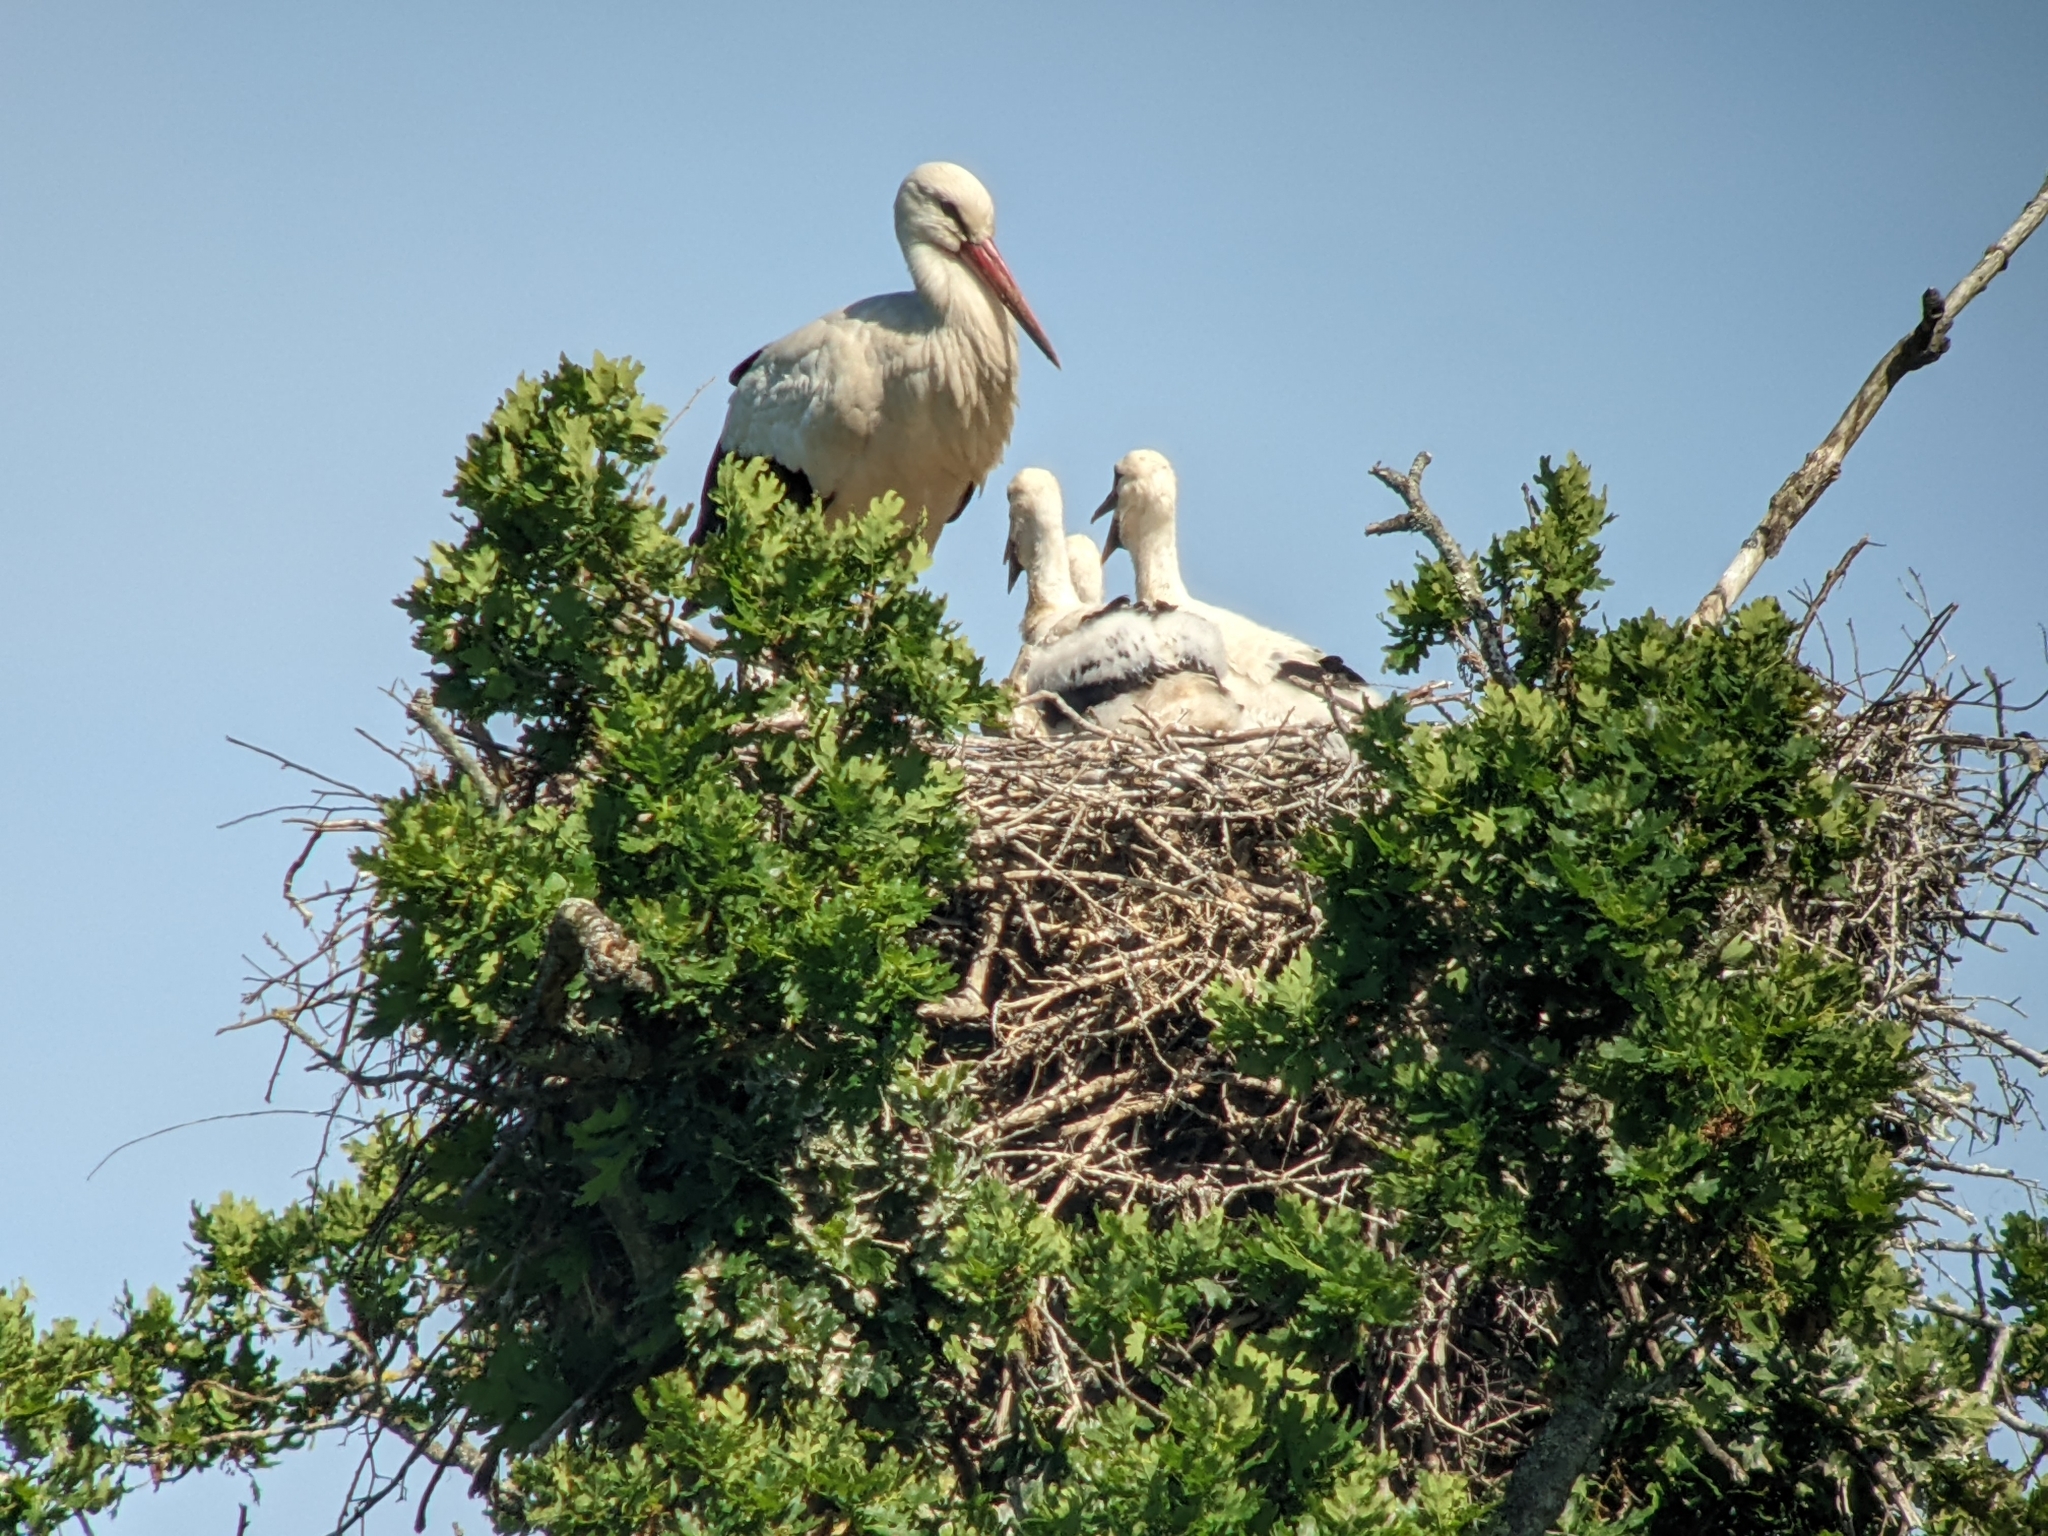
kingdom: Animalia
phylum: Chordata
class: Aves
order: Ciconiiformes
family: Ciconiidae
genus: Ciconia
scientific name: Ciconia ciconia
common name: White stork
